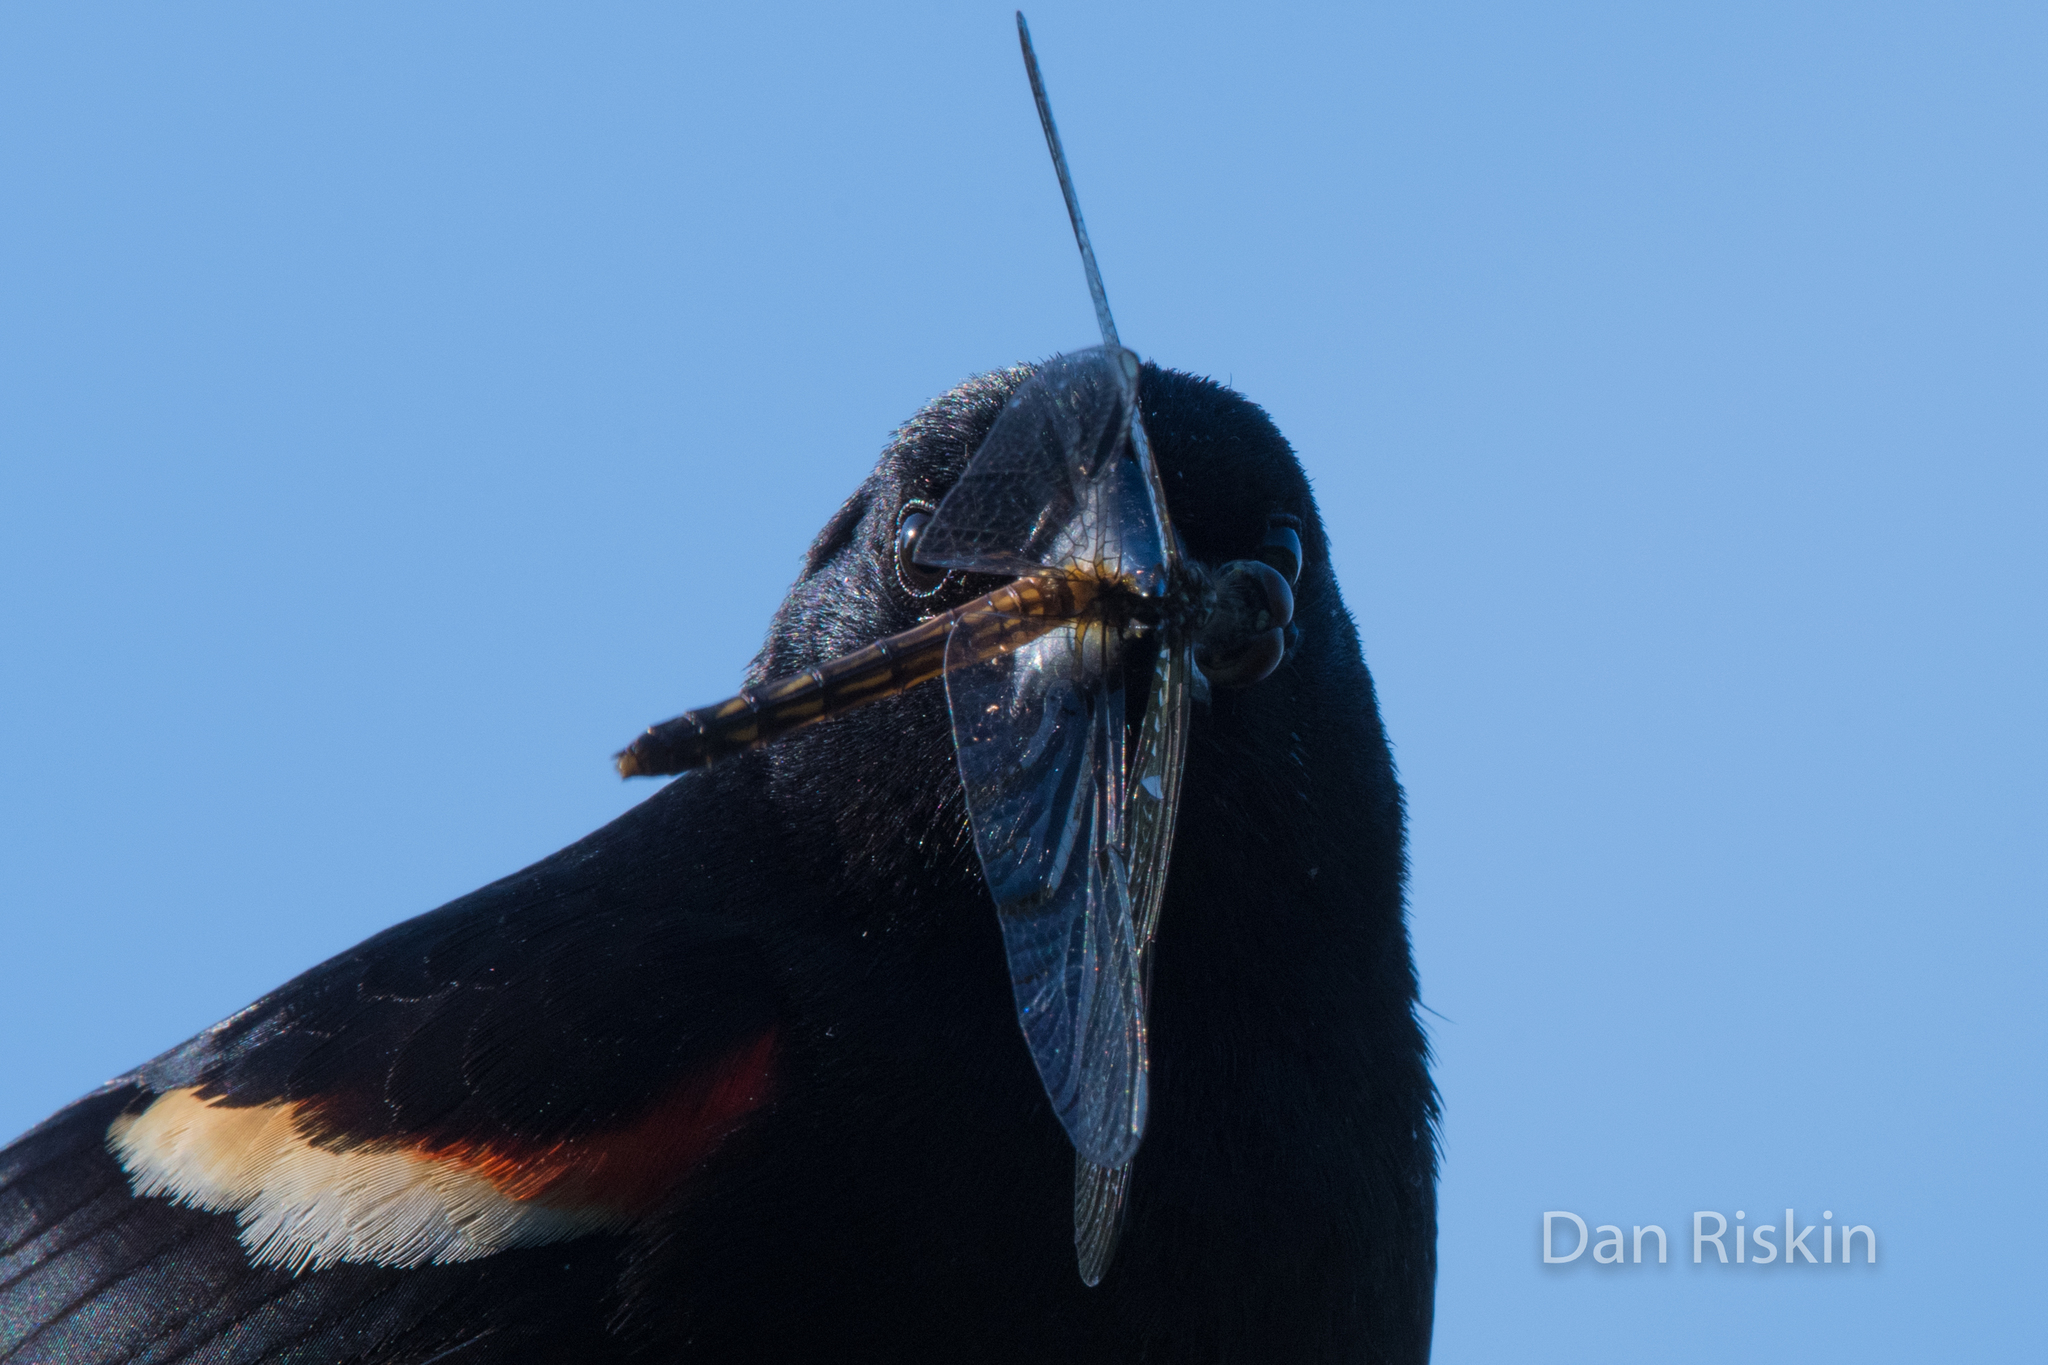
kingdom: Animalia
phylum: Chordata
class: Aves
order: Passeriformes
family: Icteridae
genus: Agelaius
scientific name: Agelaius phoeniceus
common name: Red-winged blackbird
